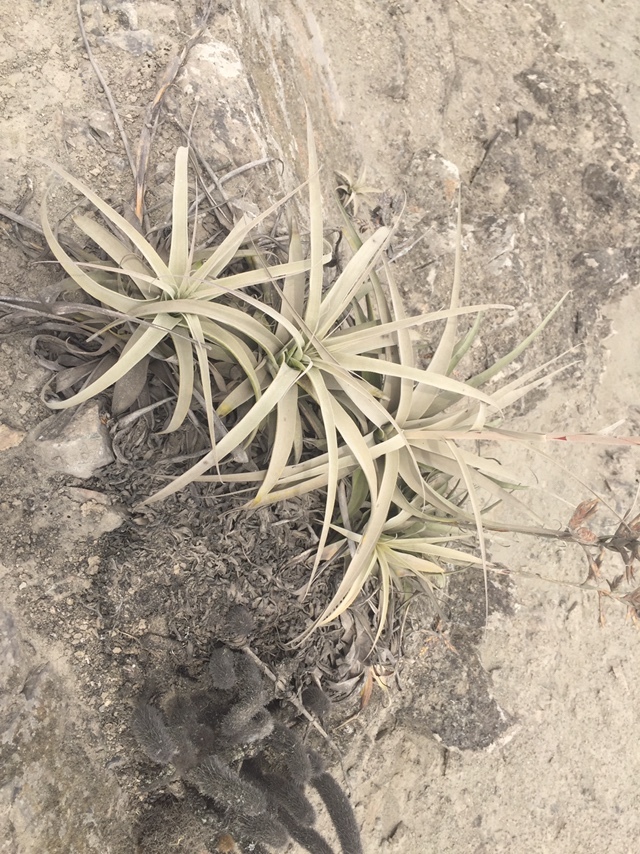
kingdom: Plantae
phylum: Tracheophyta
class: Liliopsida
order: Poales
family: Bromeliaceae
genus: Tillandsia
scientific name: Tillandsia latifolia
